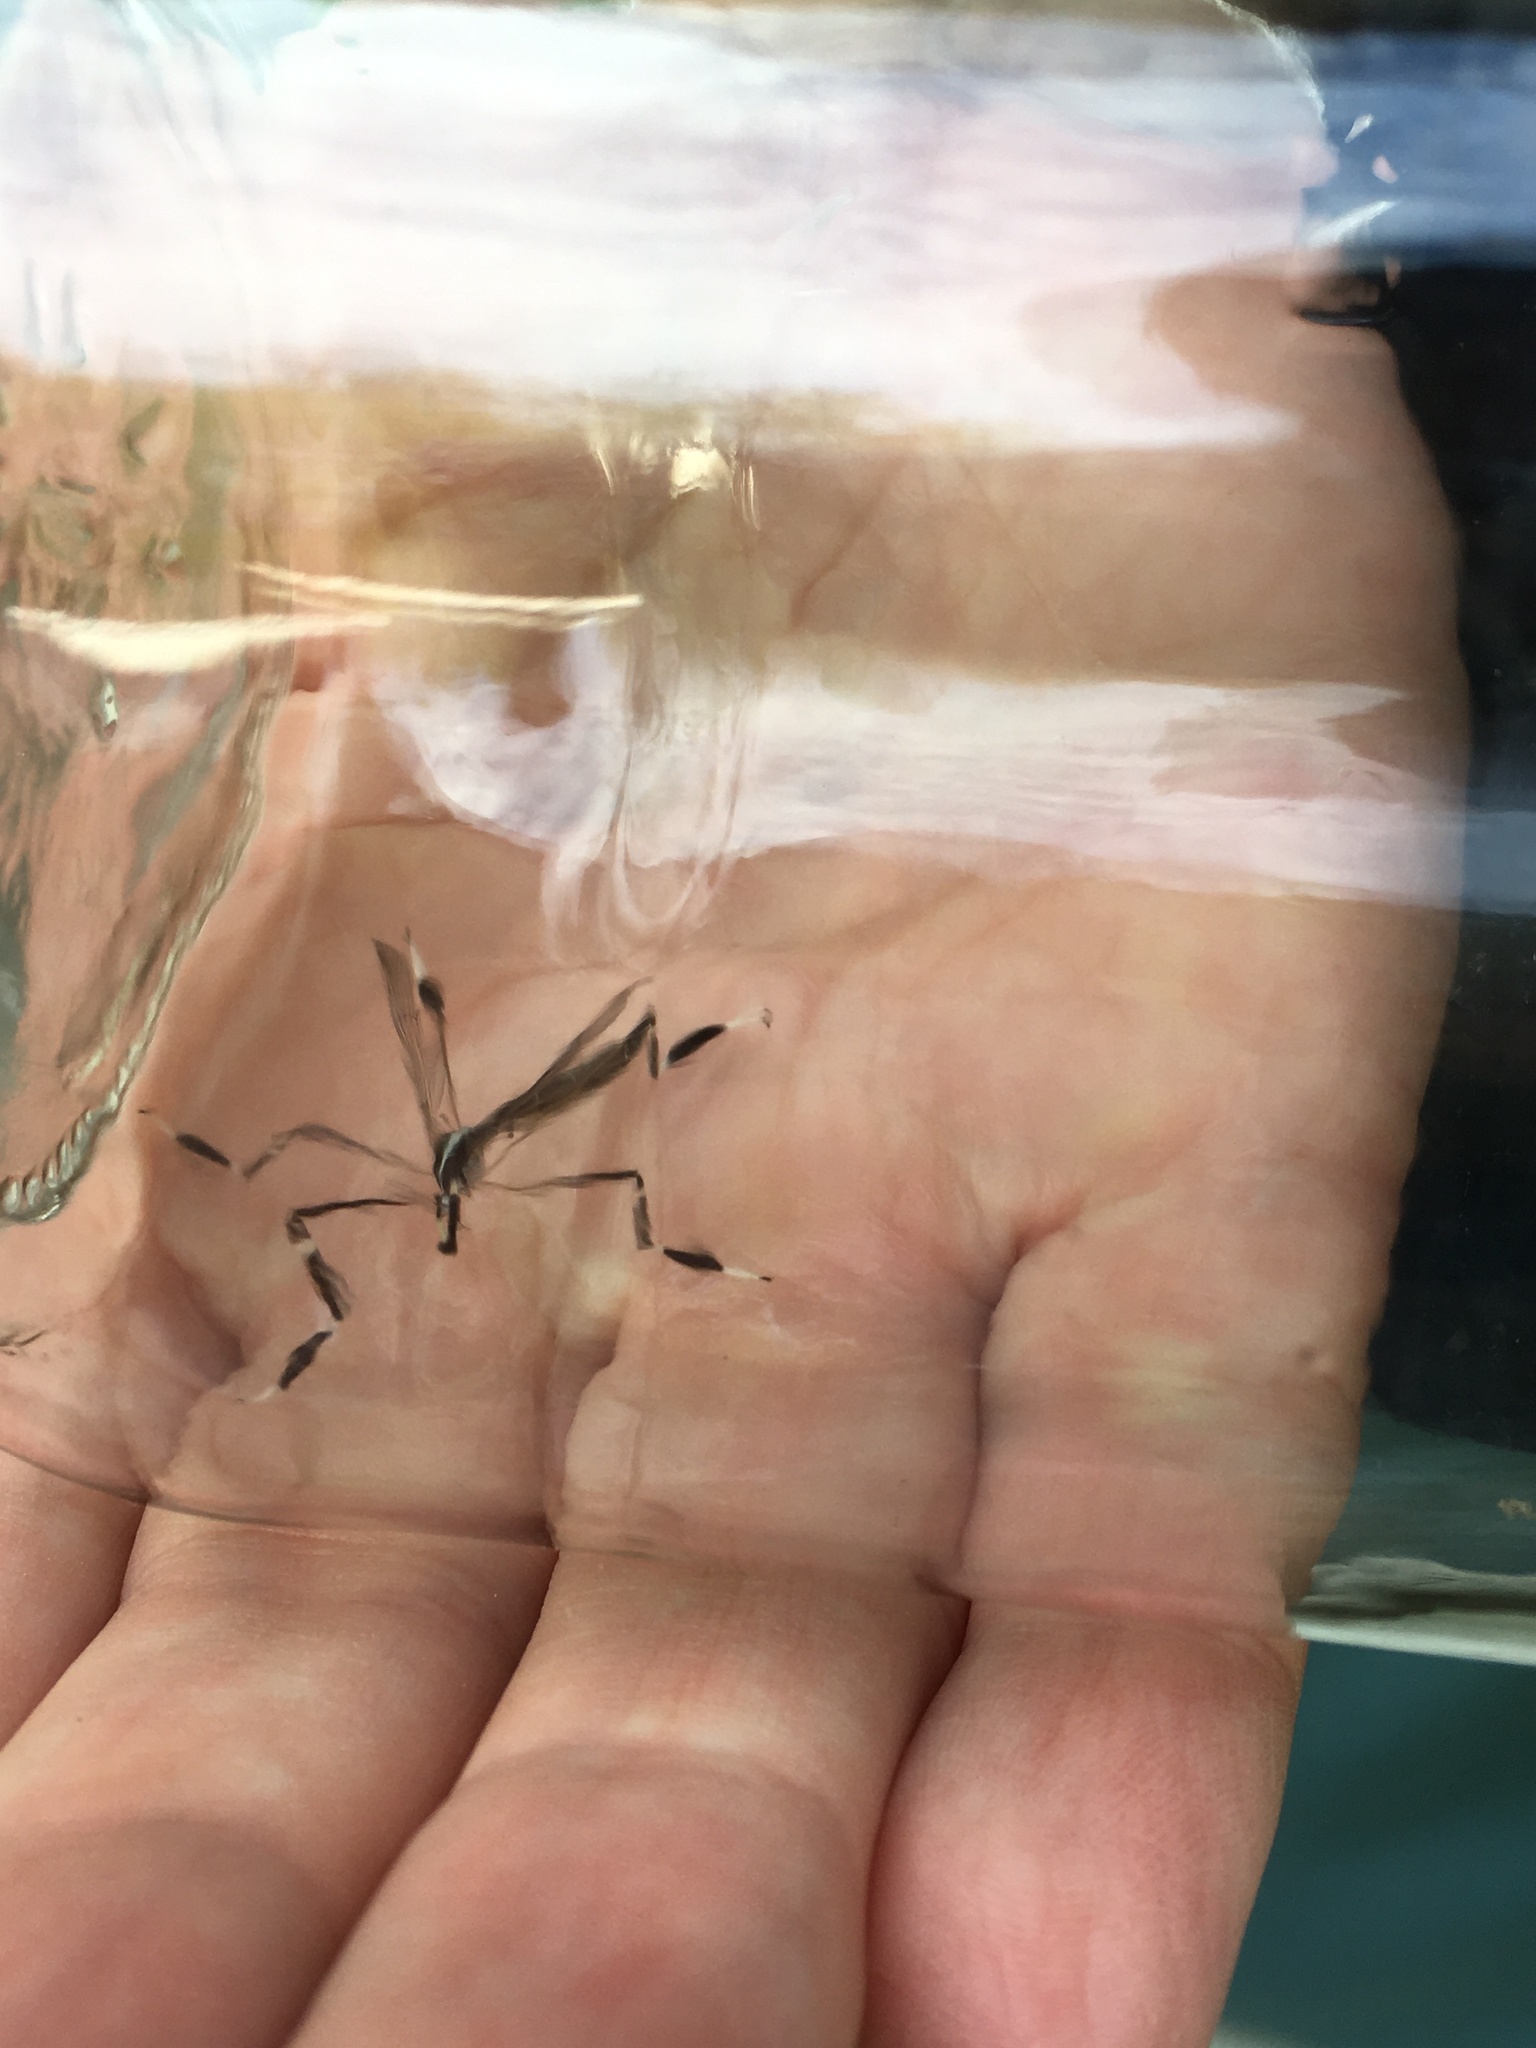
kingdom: Animalia
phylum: Arthropoda
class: Insecta
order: Diptera
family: Ptychopteridae
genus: Bittacomorpha
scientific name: Bittacomorpha clavipes
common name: Eastern phantom crane fly
